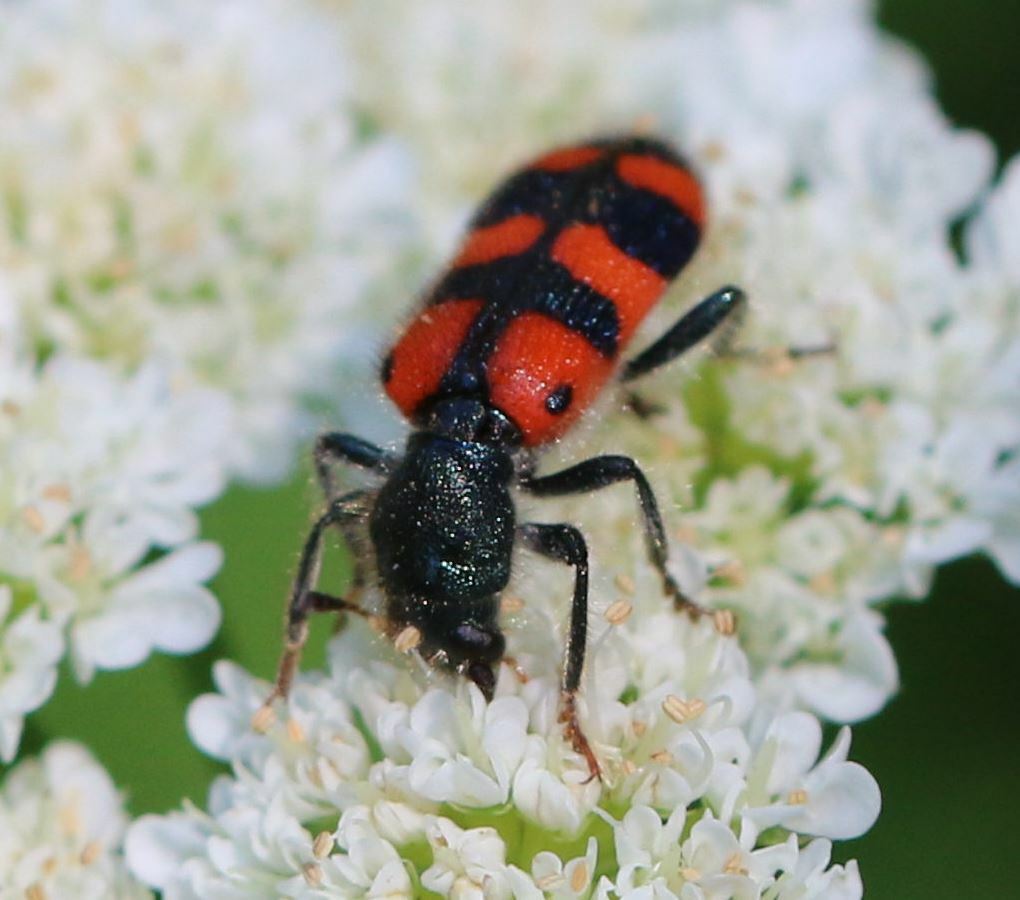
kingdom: Animalia
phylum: Arthropoda
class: Insecta
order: Coleoptera
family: Cleridae
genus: Trichodes
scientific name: Trichodes leucopsideus
